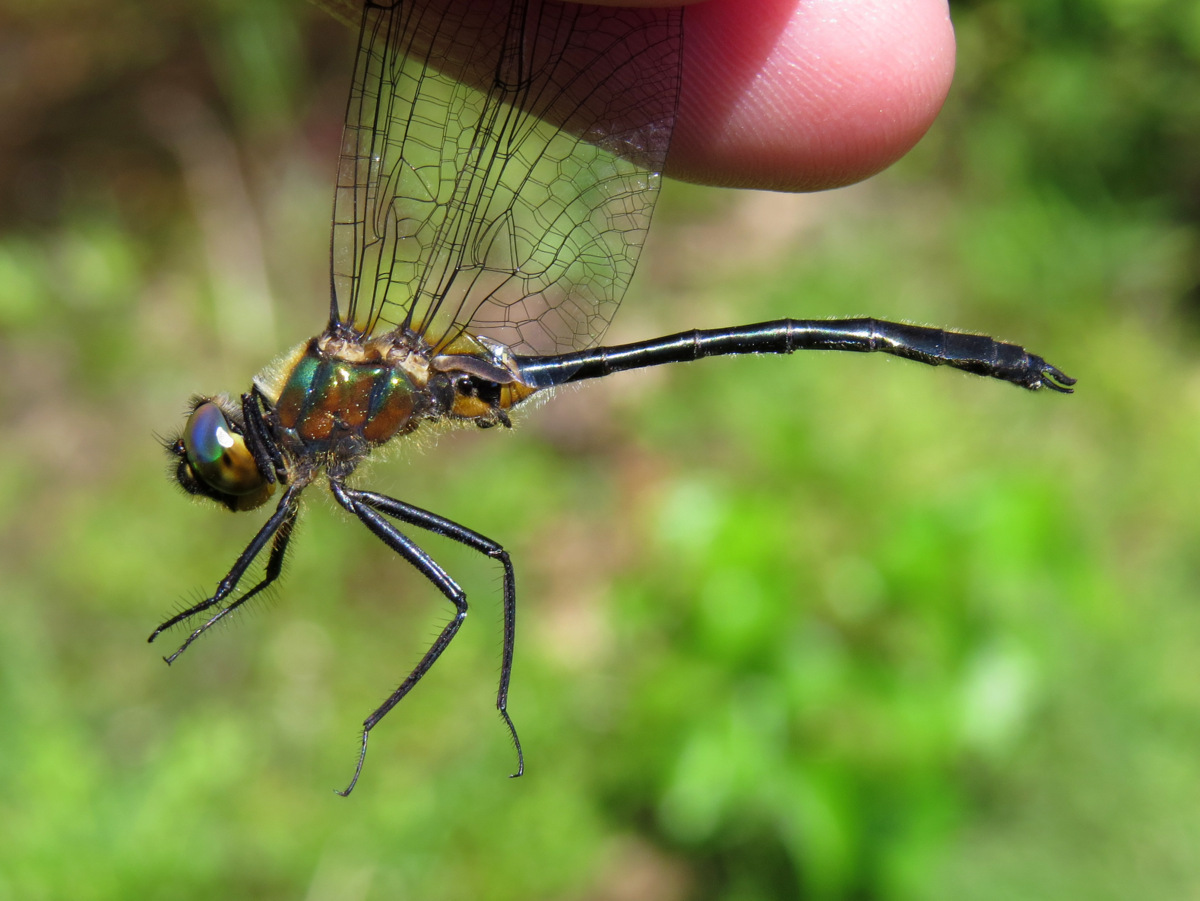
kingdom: Animalia
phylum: Arthropoda
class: Insecta
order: Odonata
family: Corduliidae
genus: Dorocordulia
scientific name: Dorocordulia libera
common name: Racket-tailed emerald
